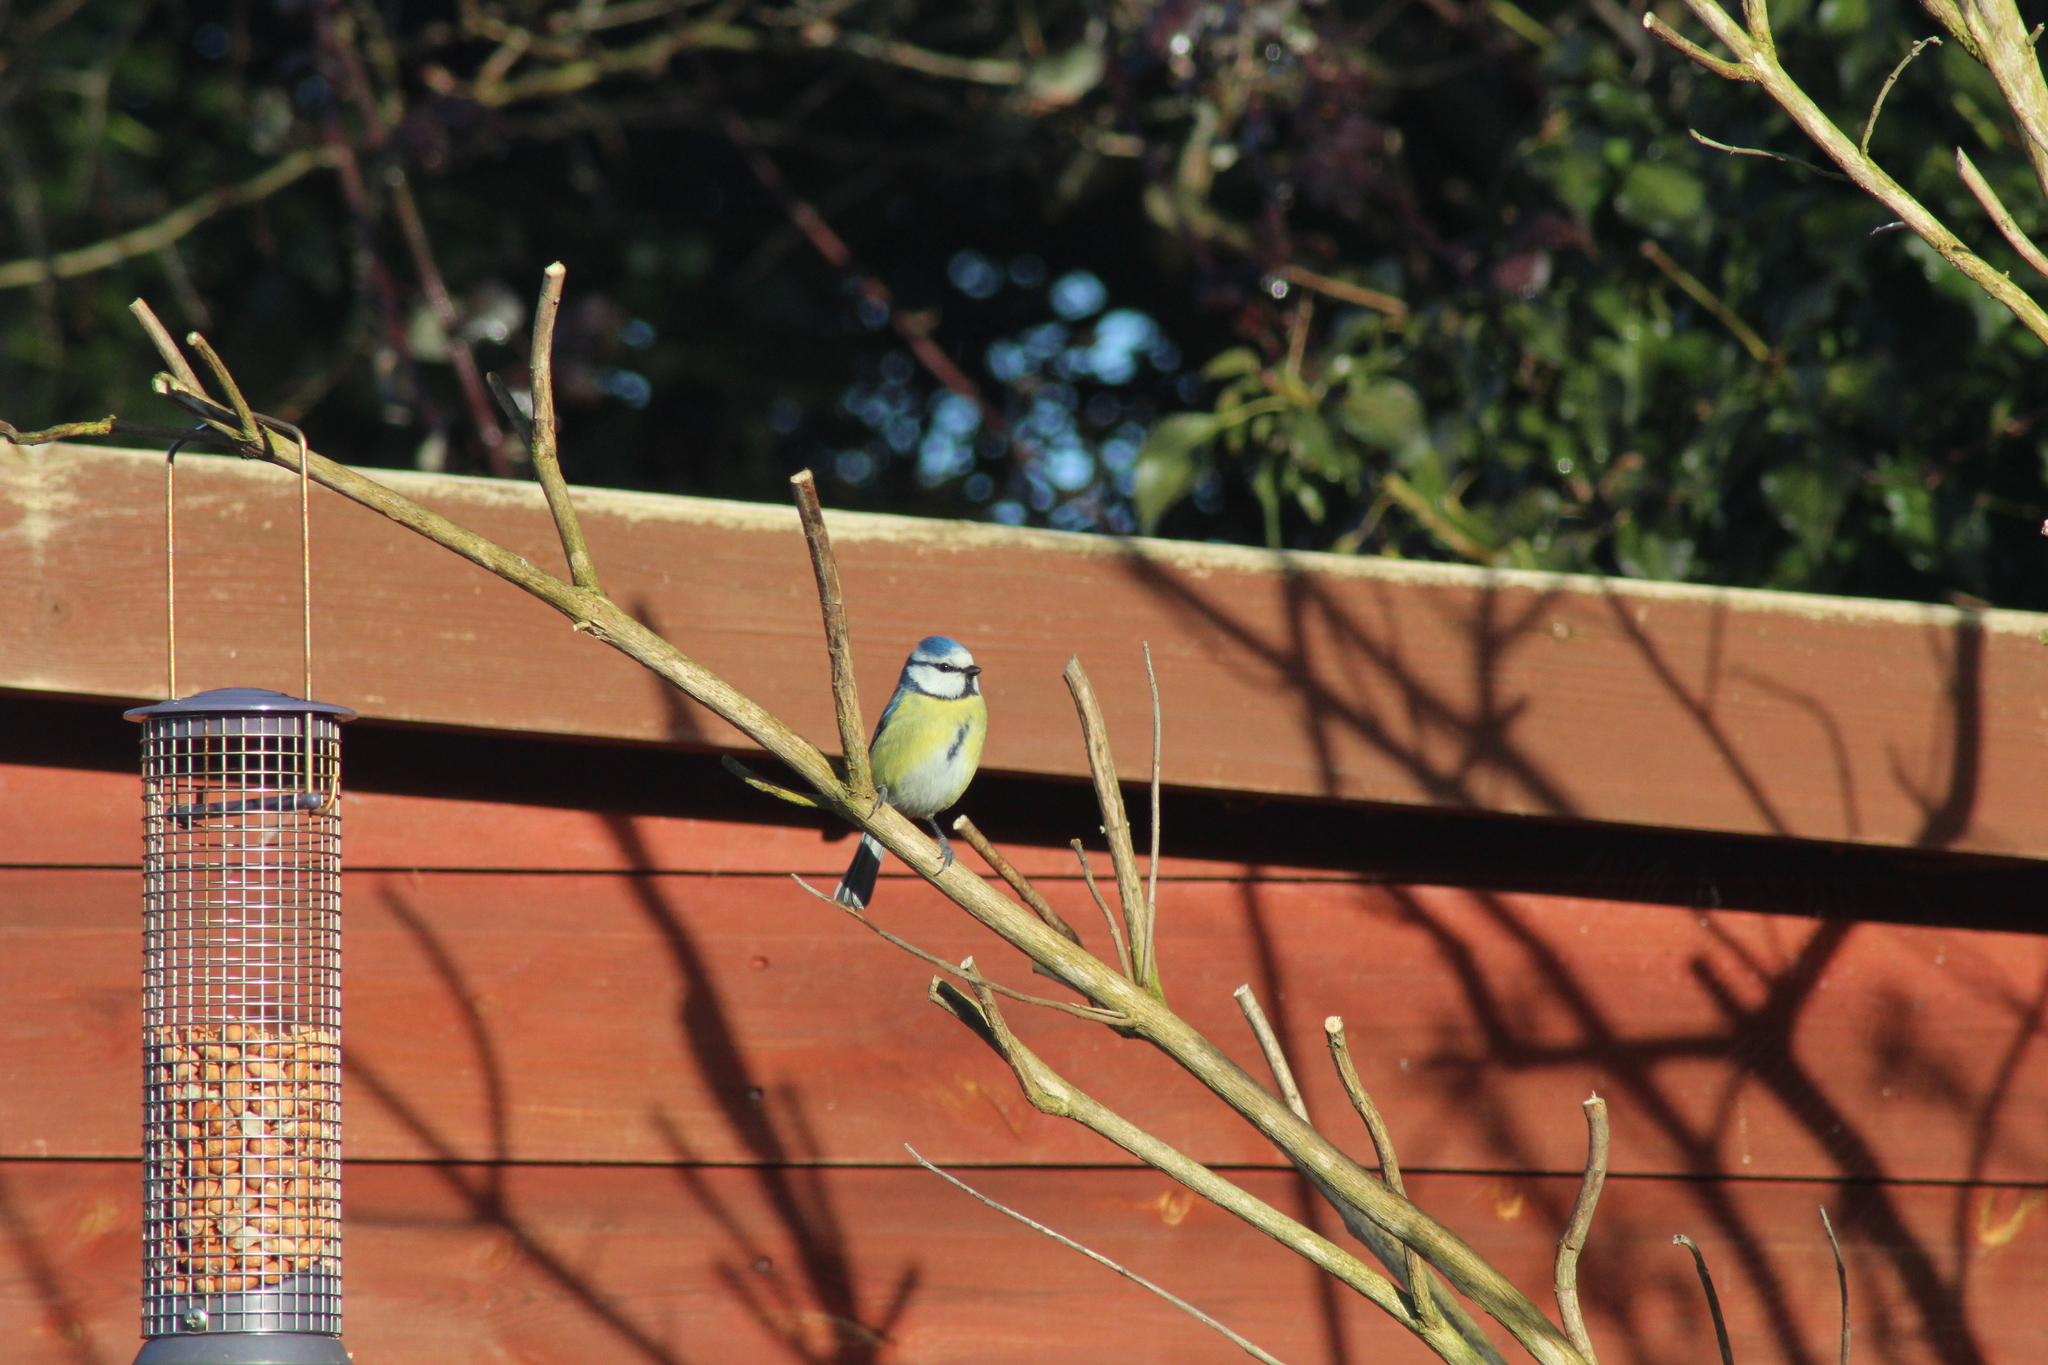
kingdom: Animalia
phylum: Chordata
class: Aves
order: Passeriformes
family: Paridae
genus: Cyanistes
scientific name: Cyanistes caeruleus
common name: Eurasian blue tit
